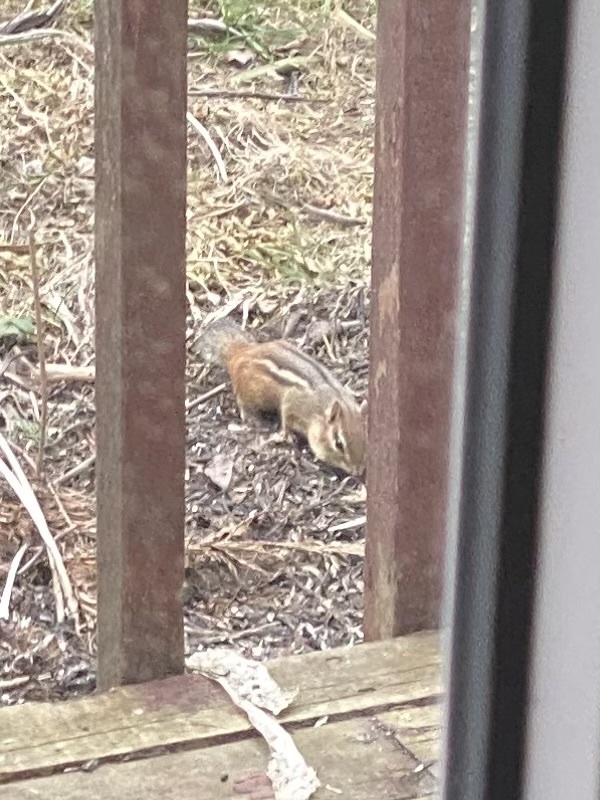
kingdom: Animalia
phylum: Chordata
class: Mammalia
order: Rodentia
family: Sciuridae
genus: Tamias
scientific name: Tamias striatus
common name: Eastern chipmunk
